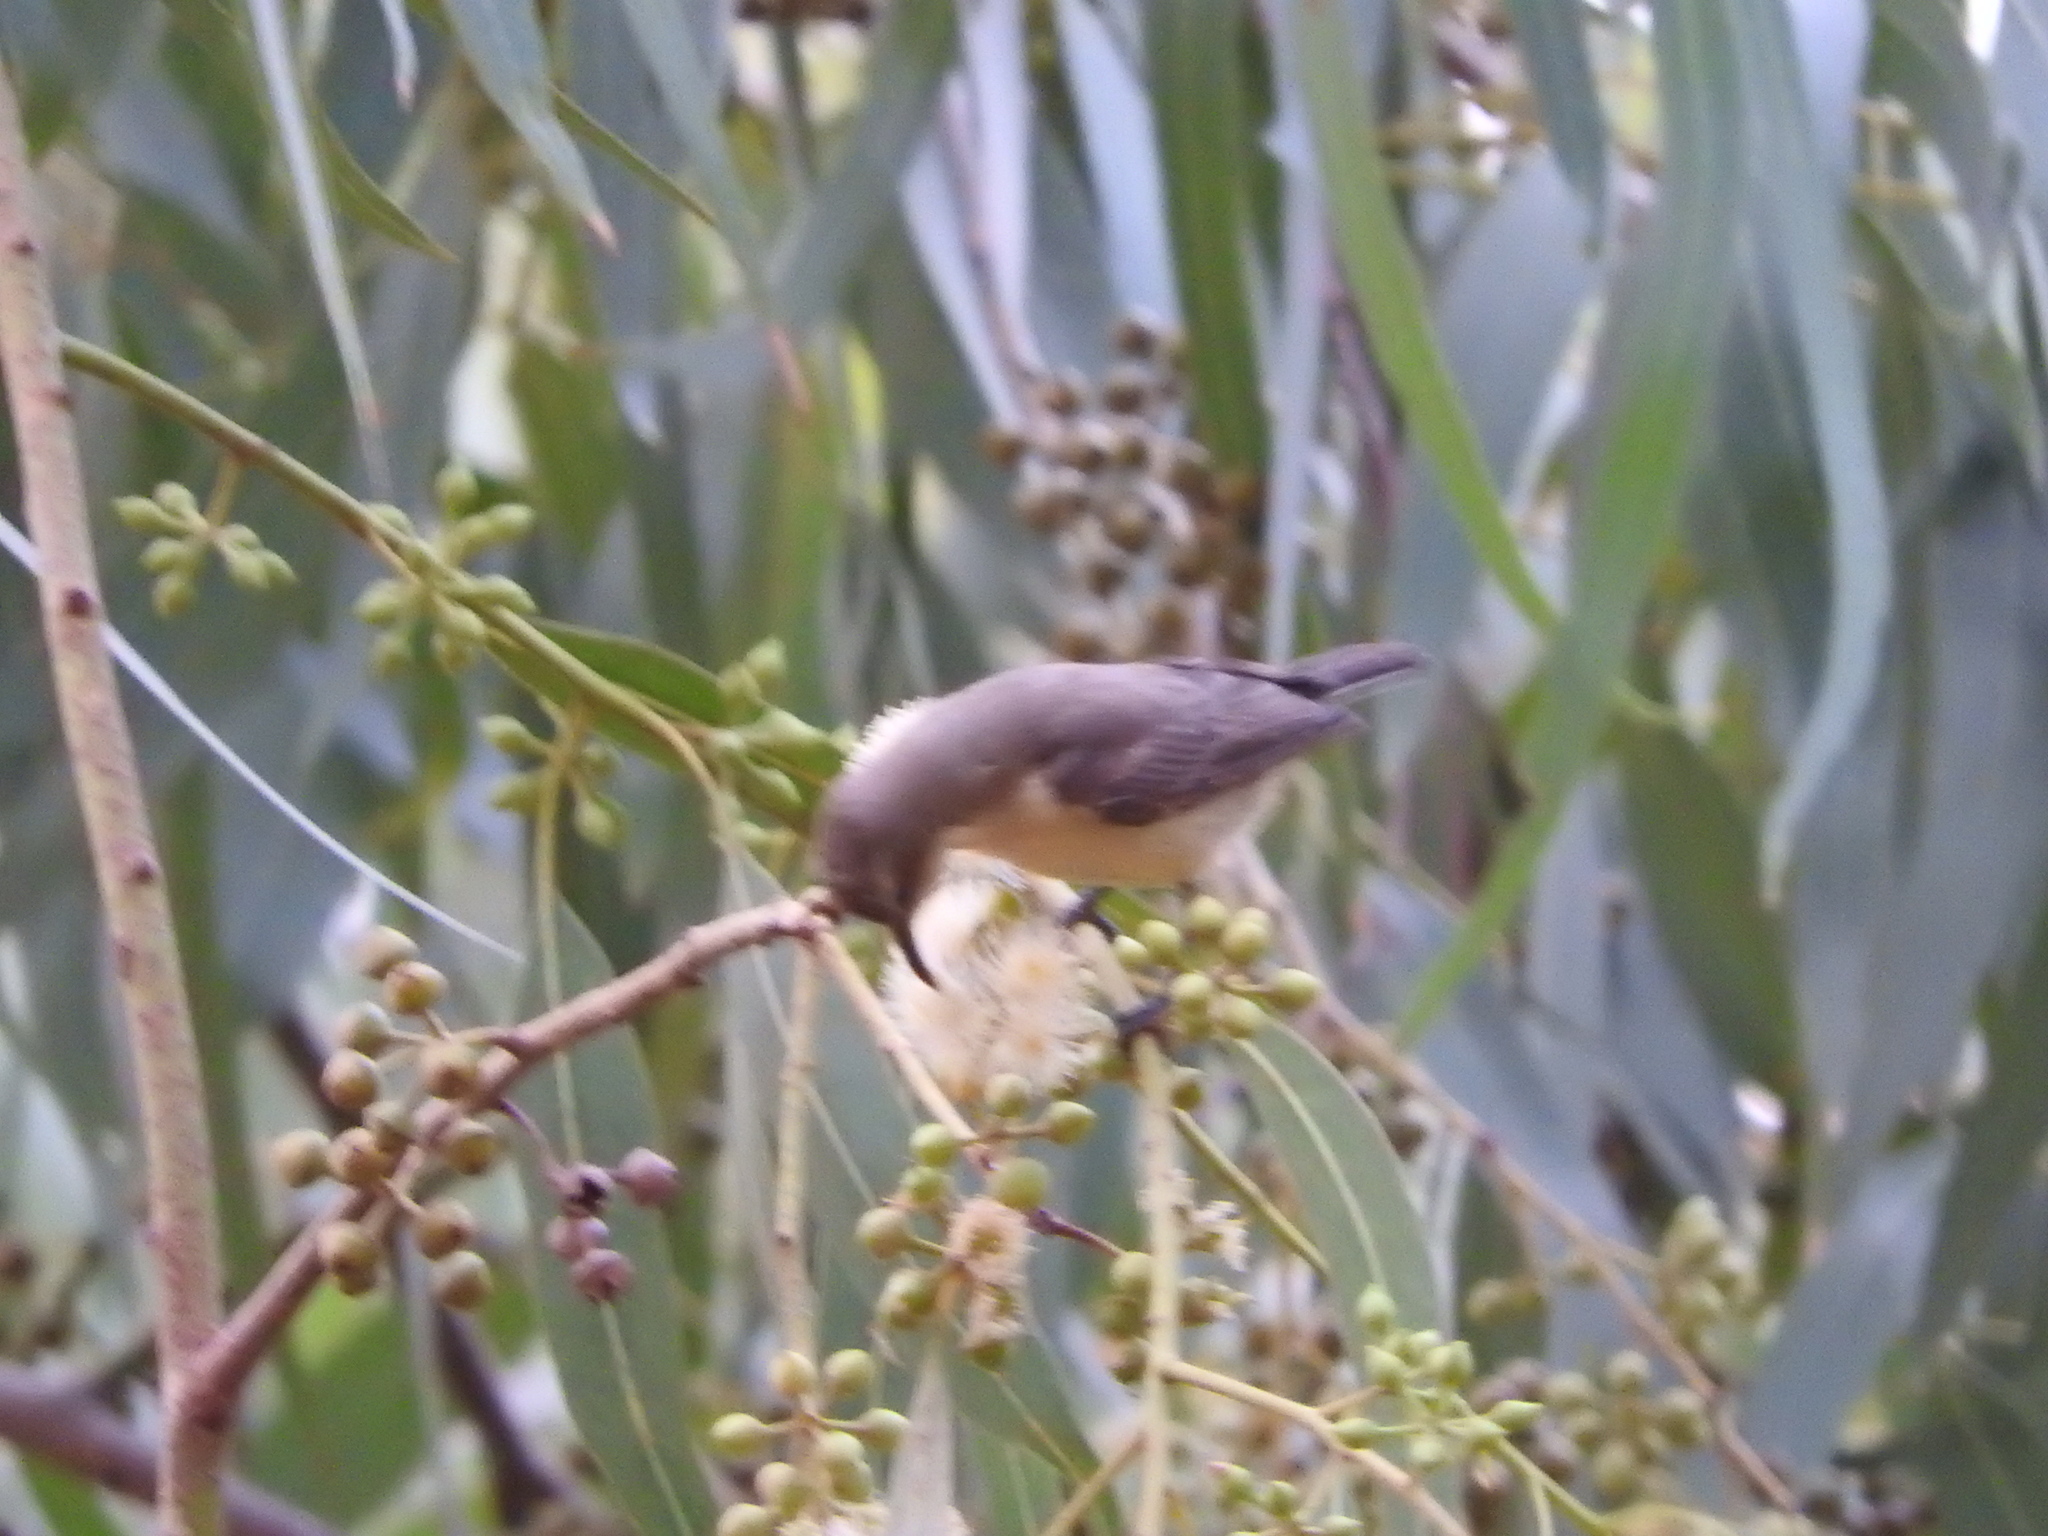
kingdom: Animalia
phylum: Chordata
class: Aves
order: Passeriformes
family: Nectariniidae
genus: Cinnyris
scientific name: Cinnyris pulchellus
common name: Beautiful sunbird
